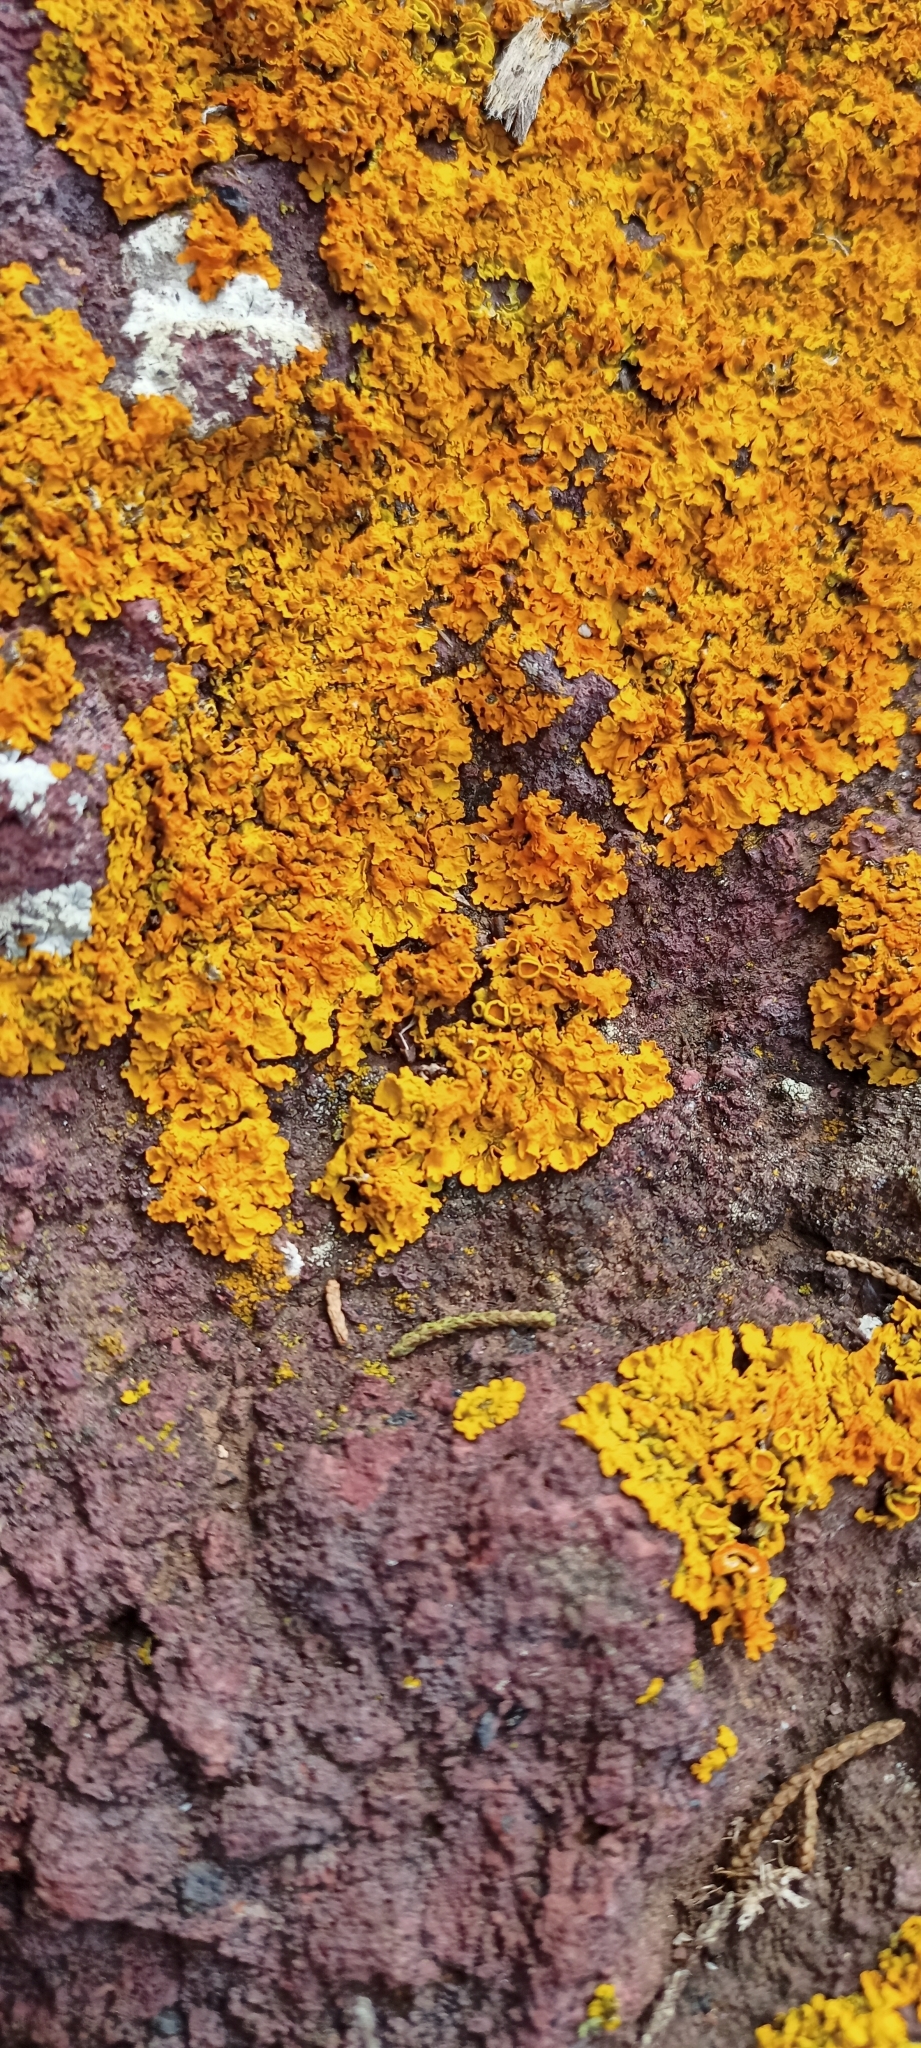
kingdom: Fungi
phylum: Ascomycota
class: Lecanoromycetes
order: Teloschistales
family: Teloschistaceae
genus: Xanthoria
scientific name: Xanthoria parietina
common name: Common orange lichen
